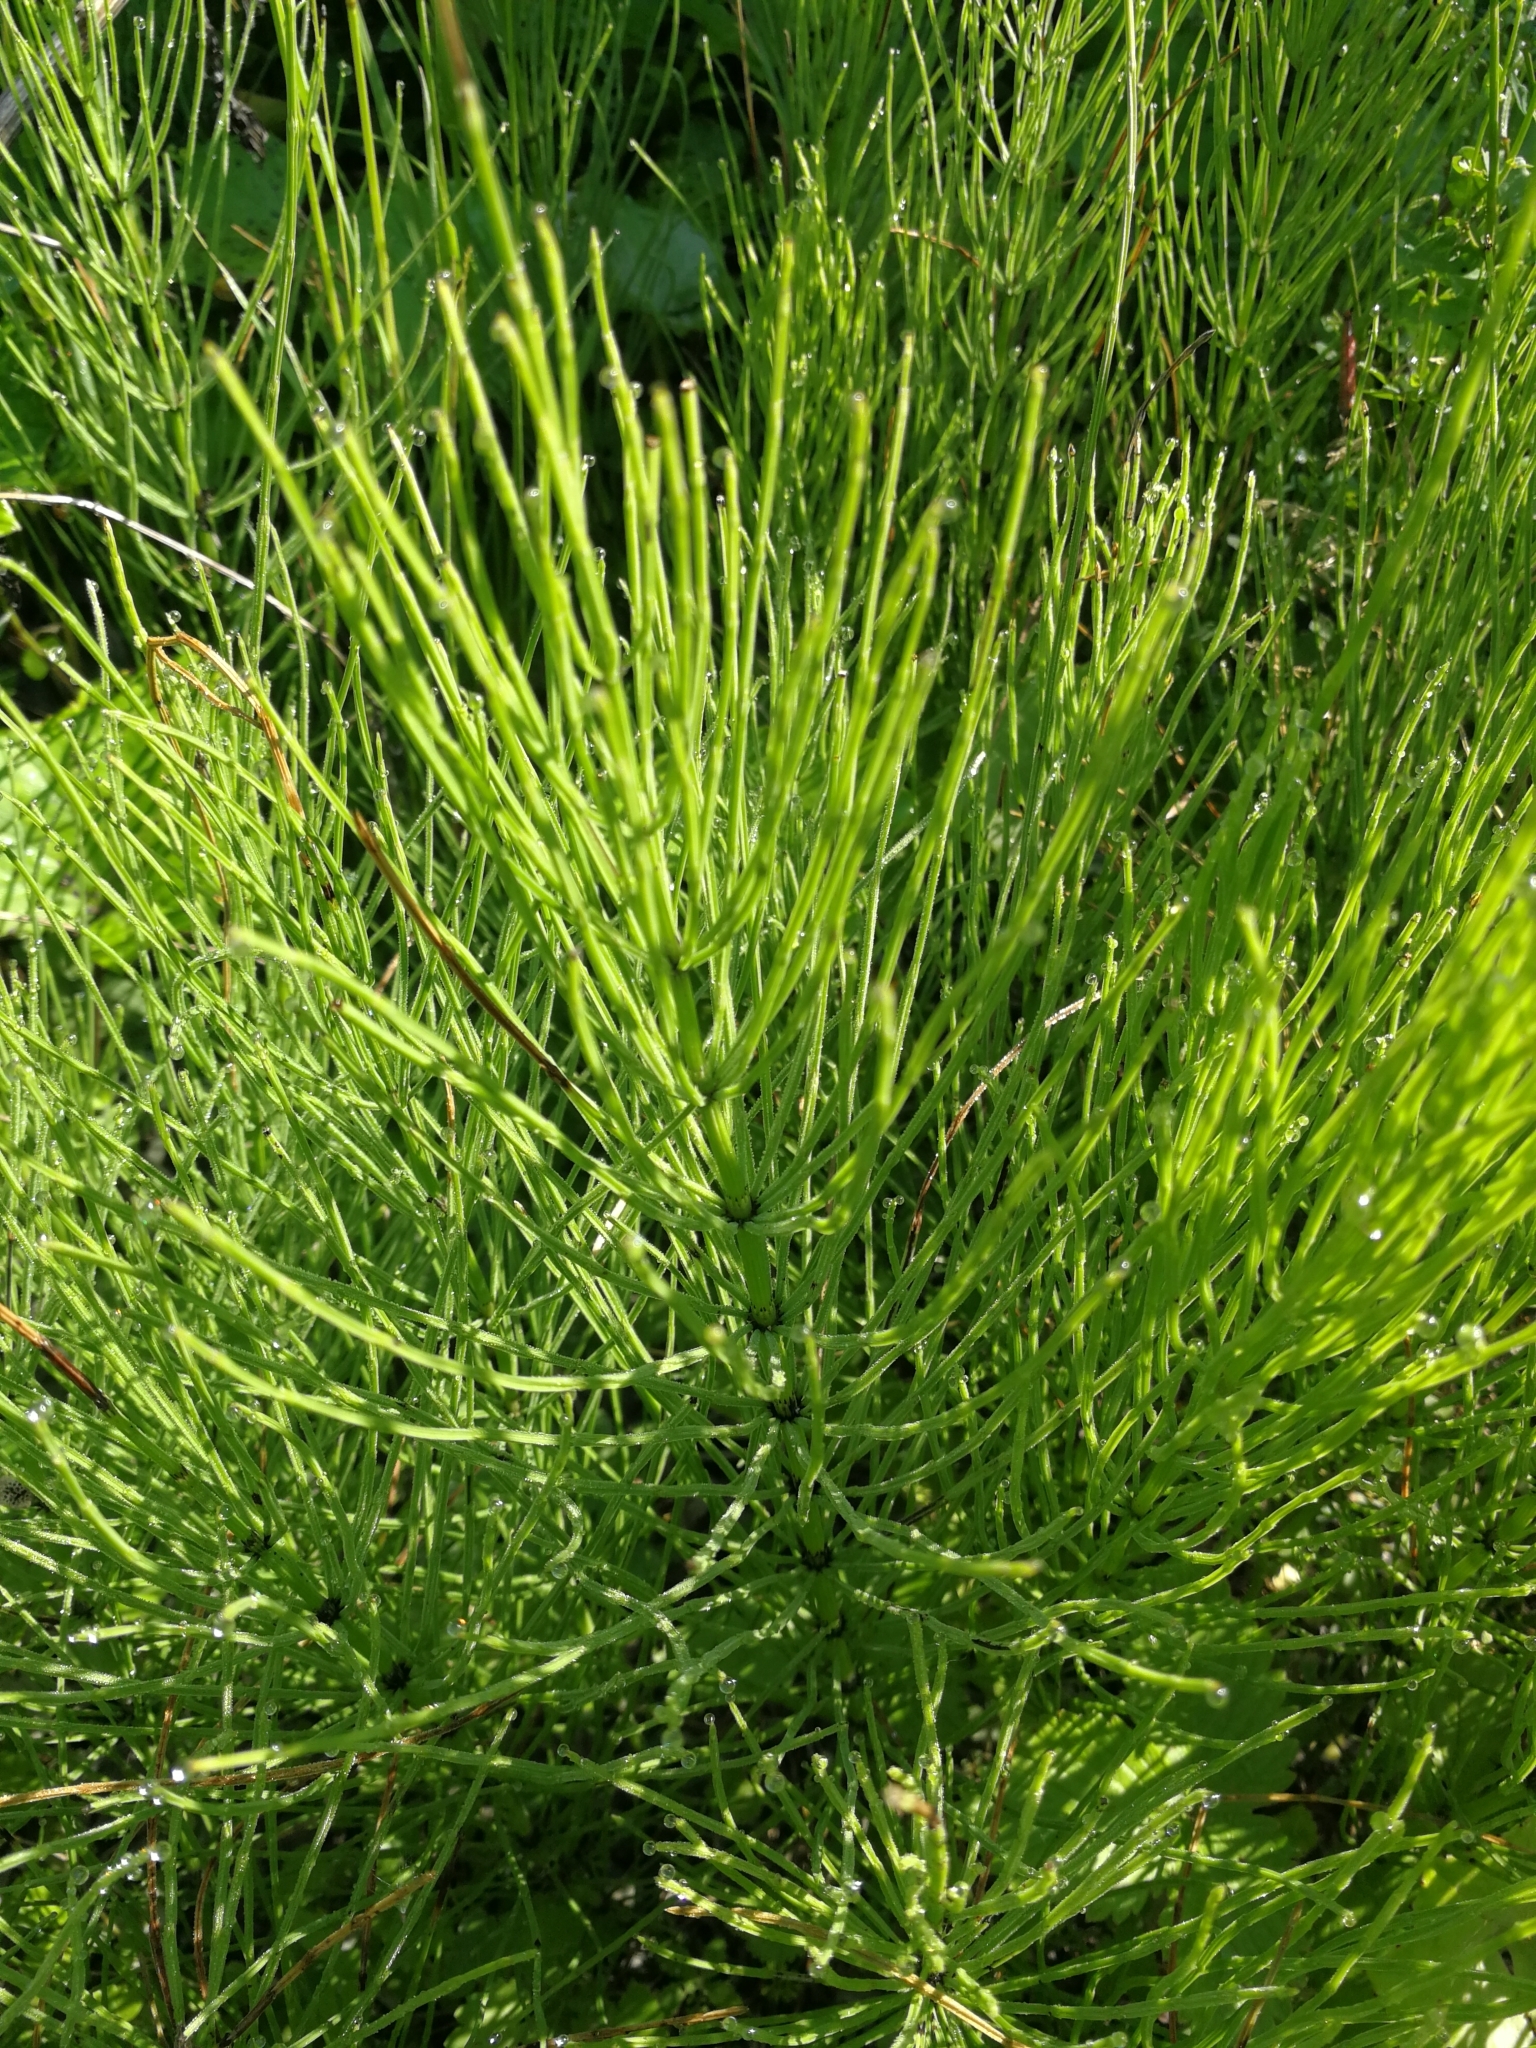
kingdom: Plantae
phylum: Tracheophyta
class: Polypodiopsida
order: Equisetales
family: Equisetaceae
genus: Equisetum
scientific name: Equisetum arvense
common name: Field horsetail
